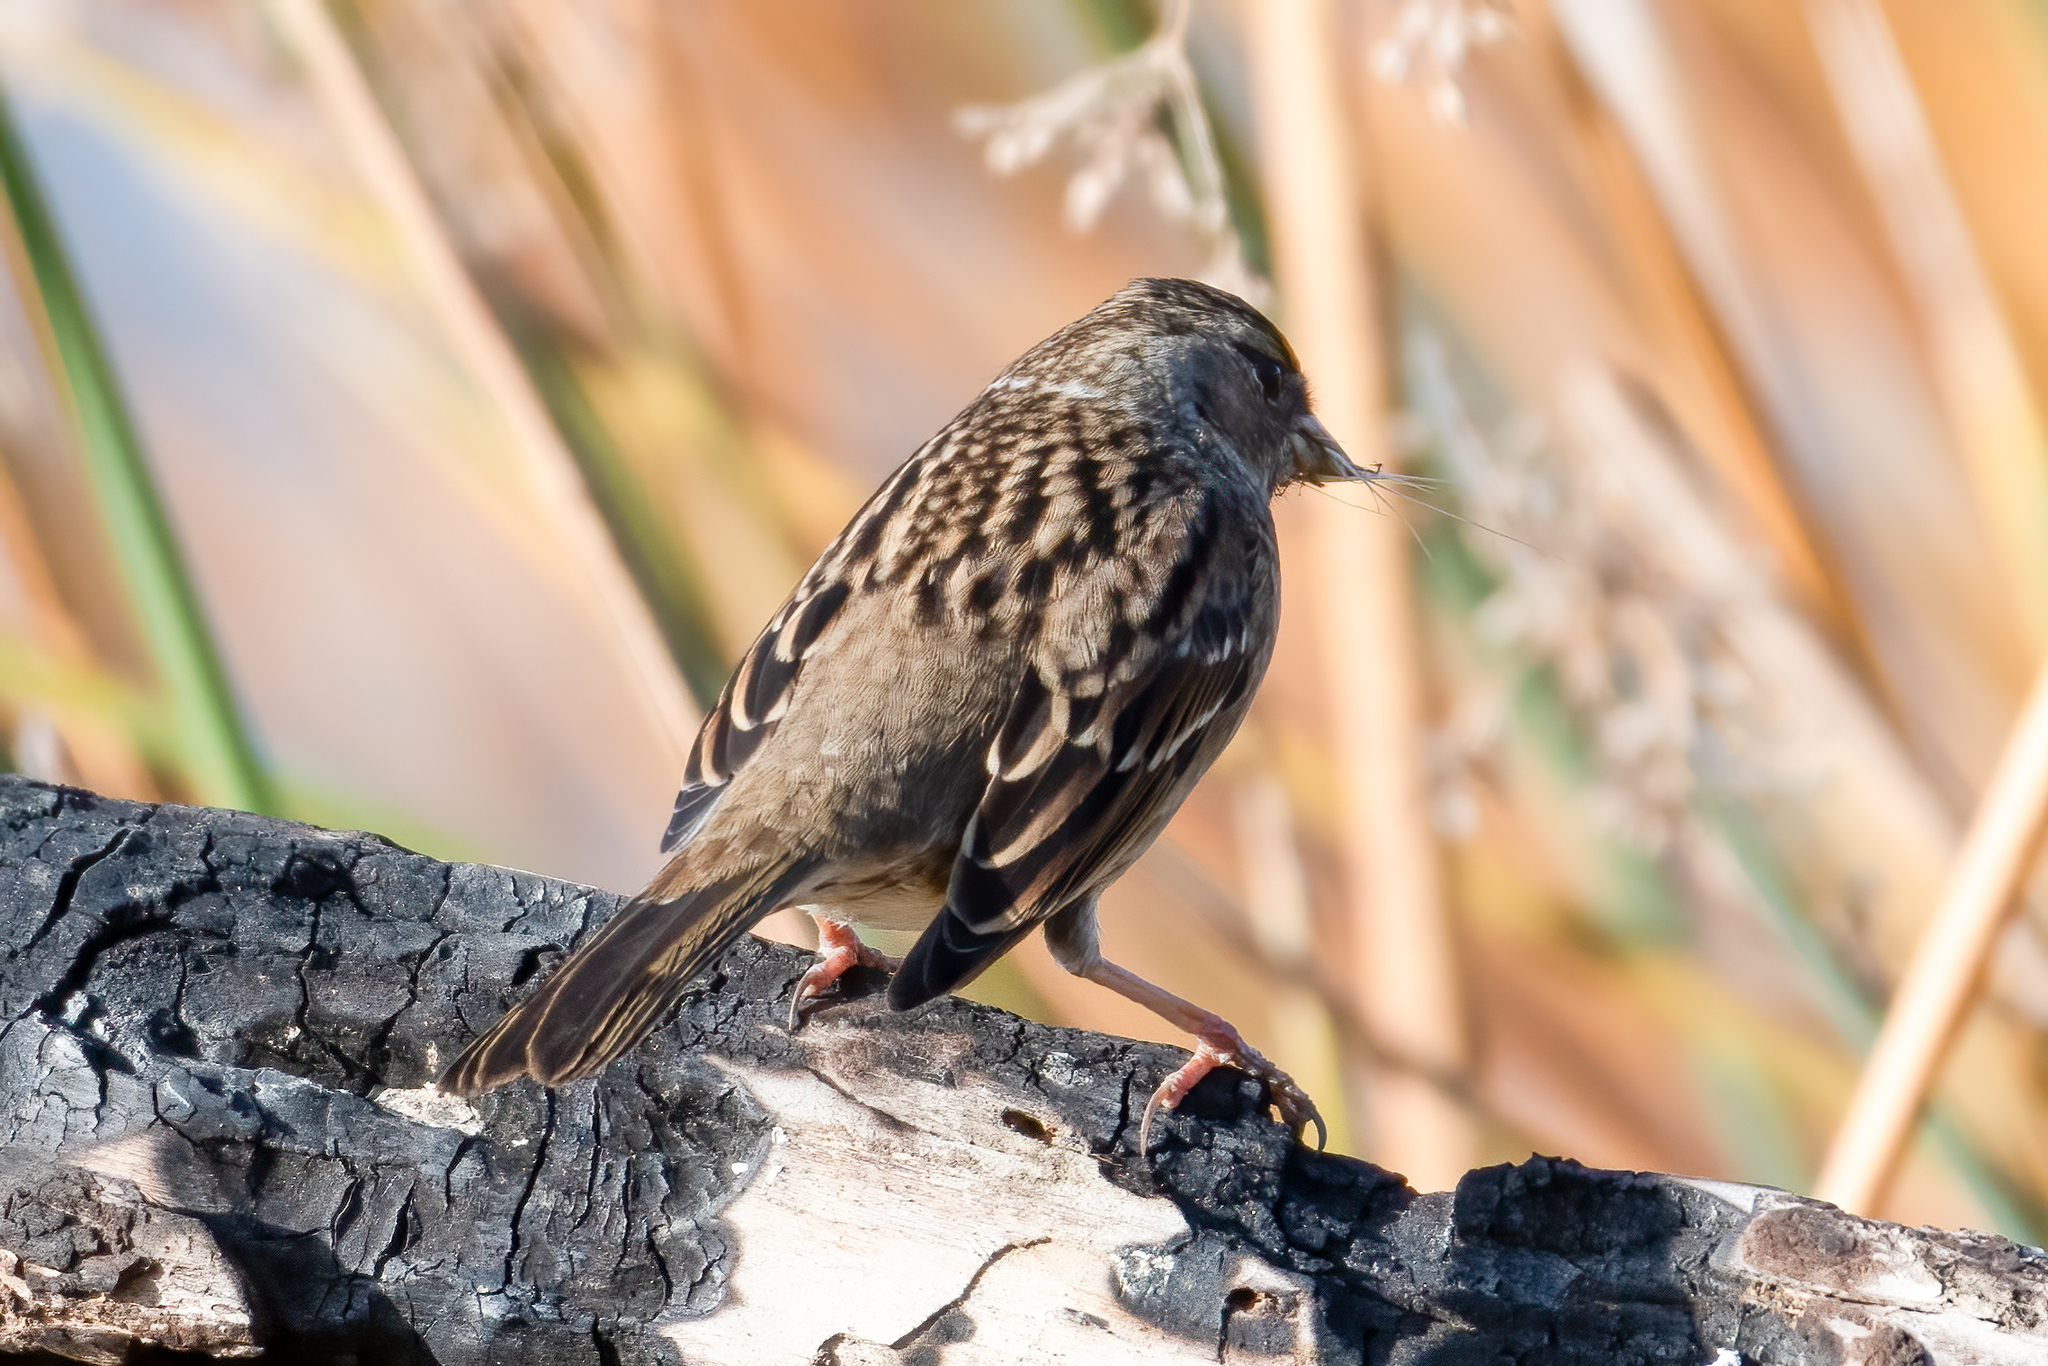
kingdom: Animalia
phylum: Chordata
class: Aves
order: Passeriformes
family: Passerellidae
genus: Zonotrichia
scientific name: Zonotrichia atricapilla
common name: Golden-crowned sparrow
